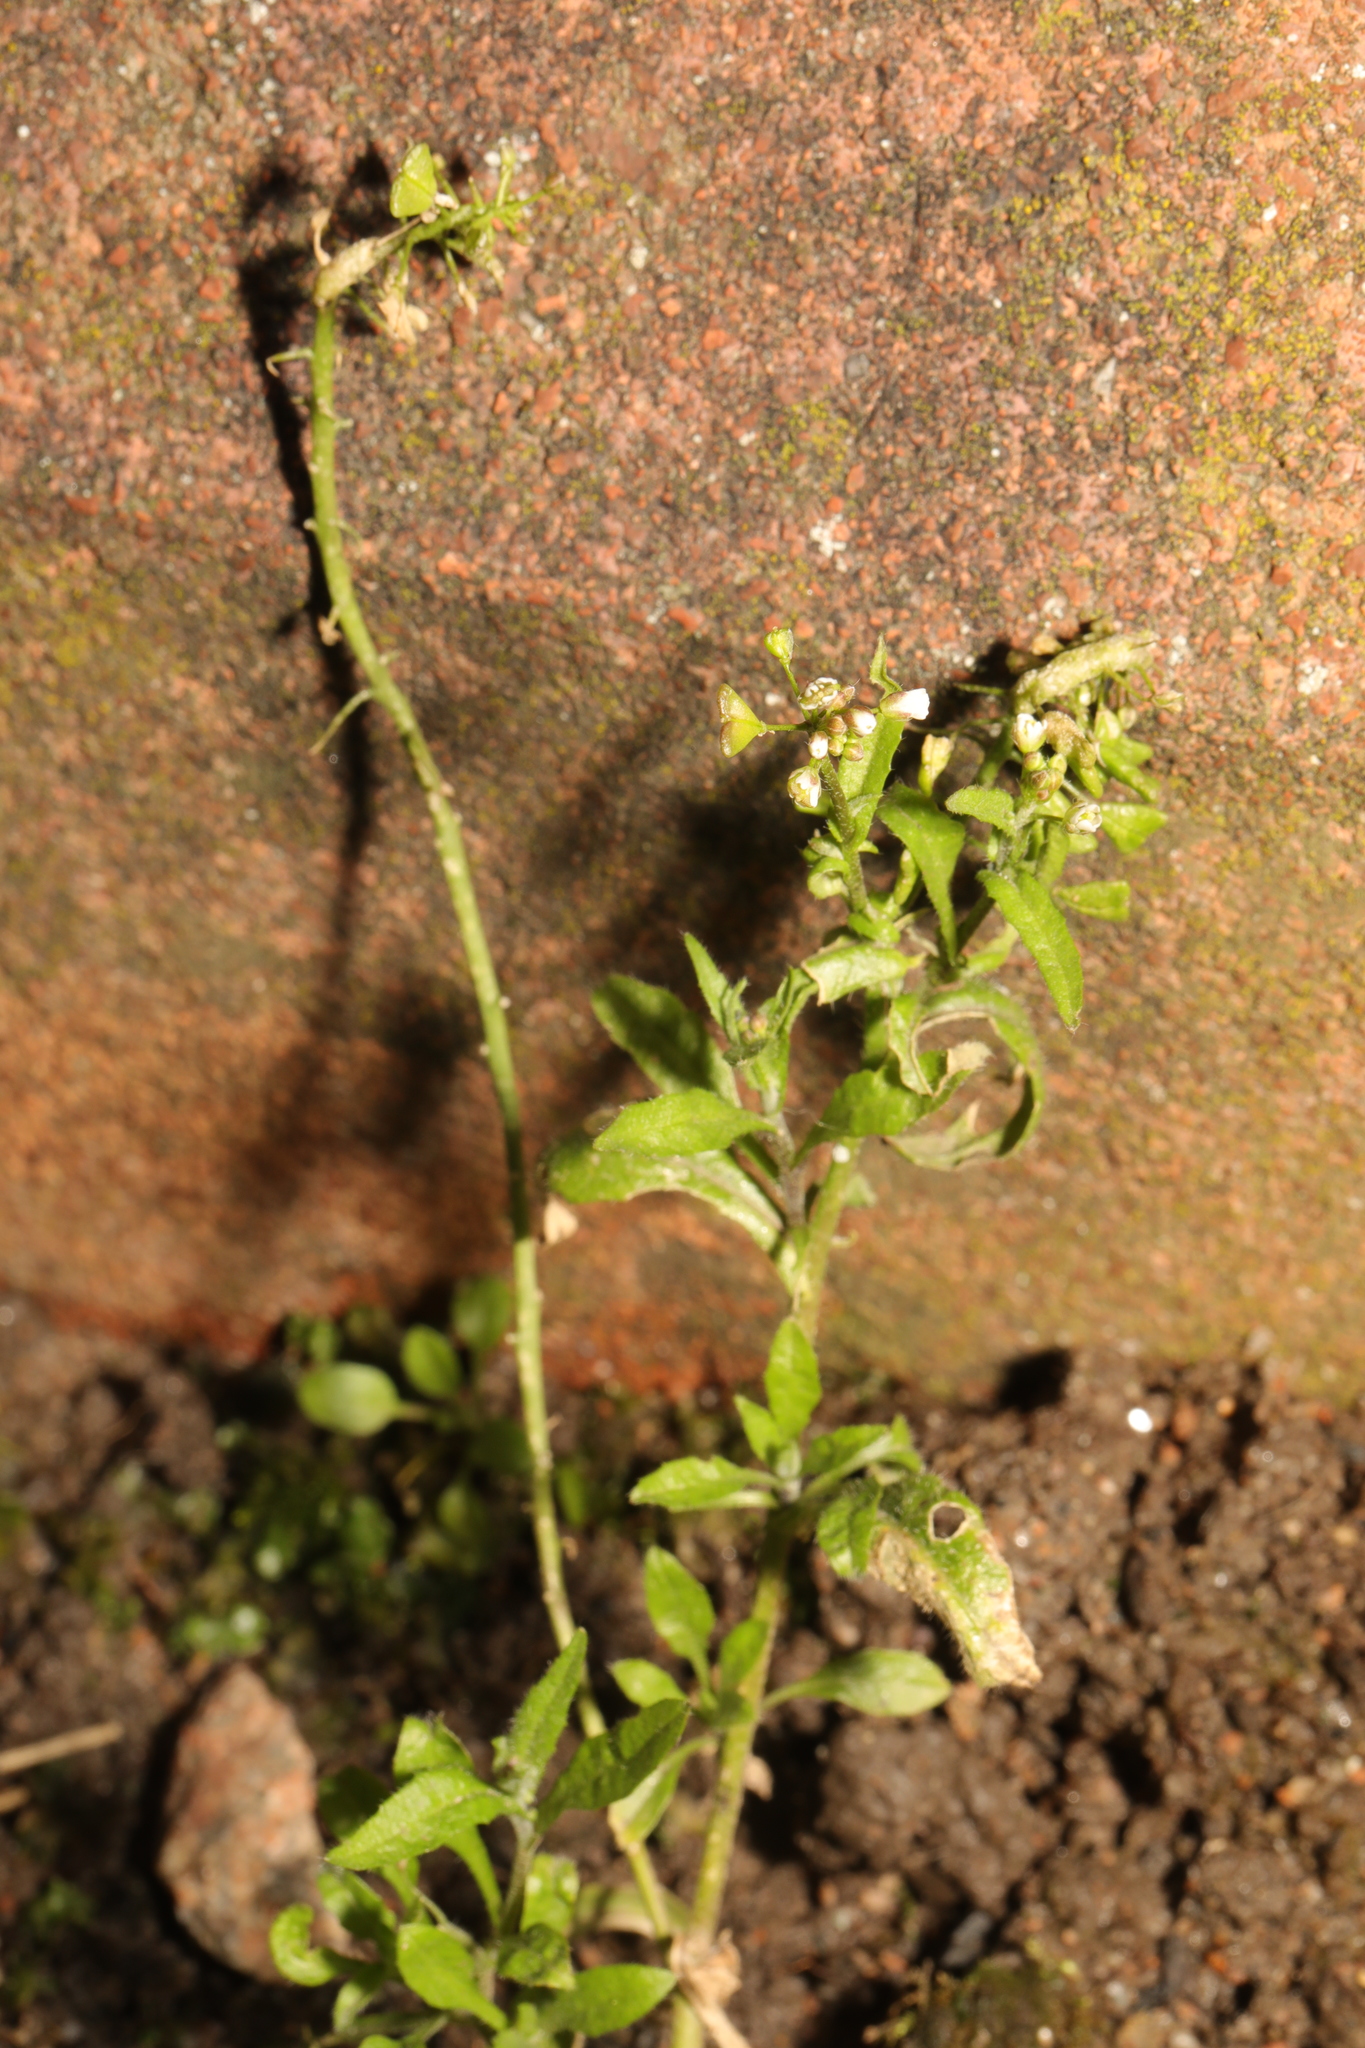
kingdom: Plantae
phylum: Tracheophyta
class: Magnoliopsida
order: Brassicales
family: Brassicaceae
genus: Capsella
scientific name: Capsella bursa-pastoris
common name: Shepherd's purse
